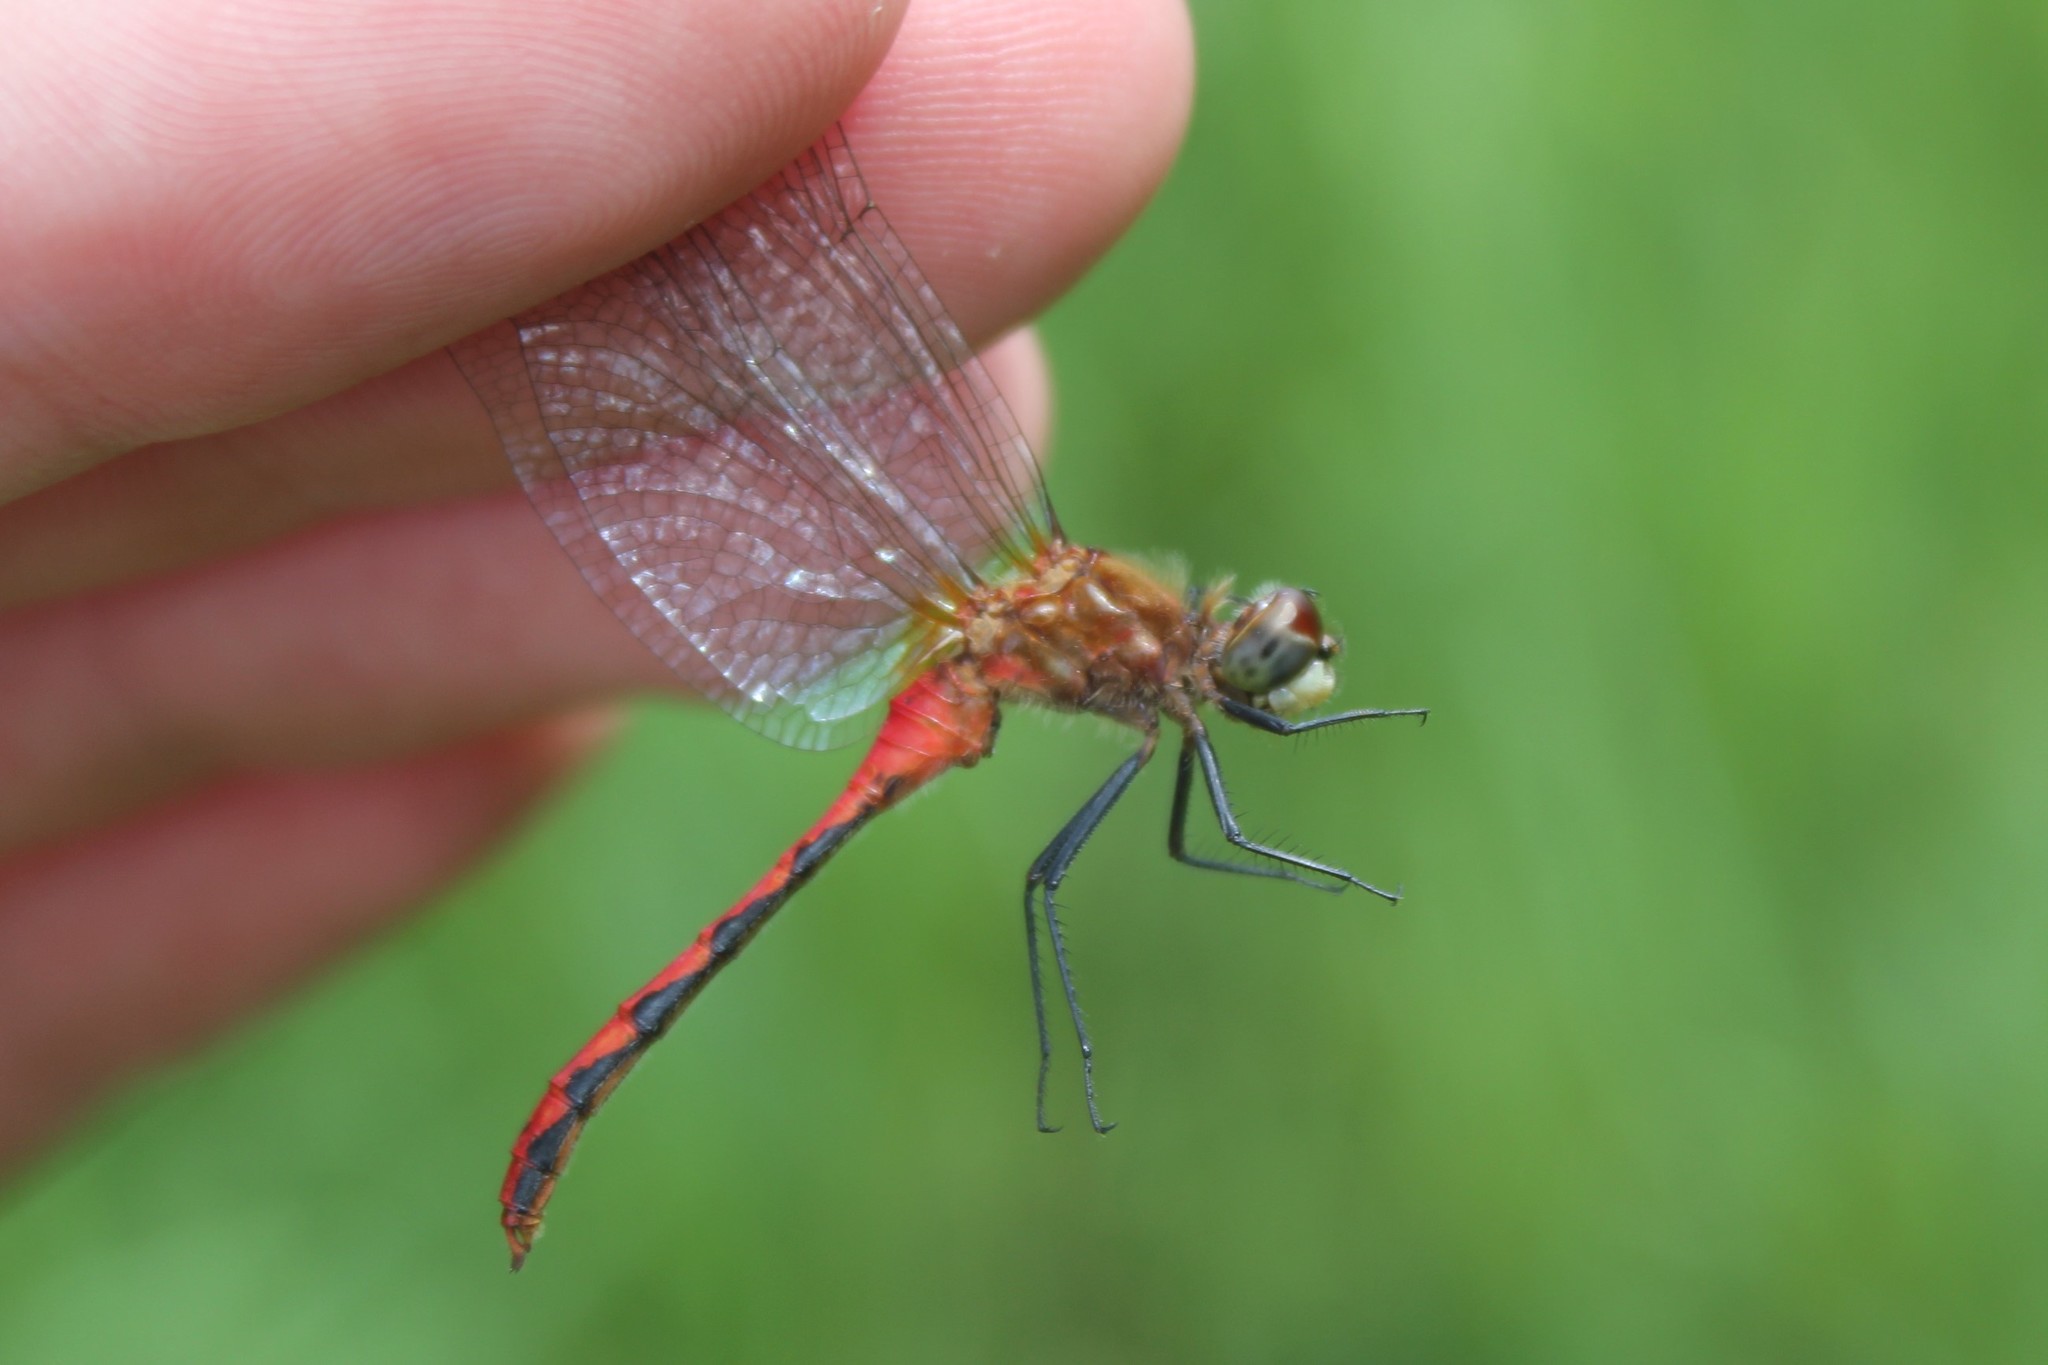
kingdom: Animalia
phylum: Arthropoda
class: Insecta
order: Odonata
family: Libellulidae
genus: Sympetrum
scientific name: Sympetrum obtrusum
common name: White-faced meadowhawk
